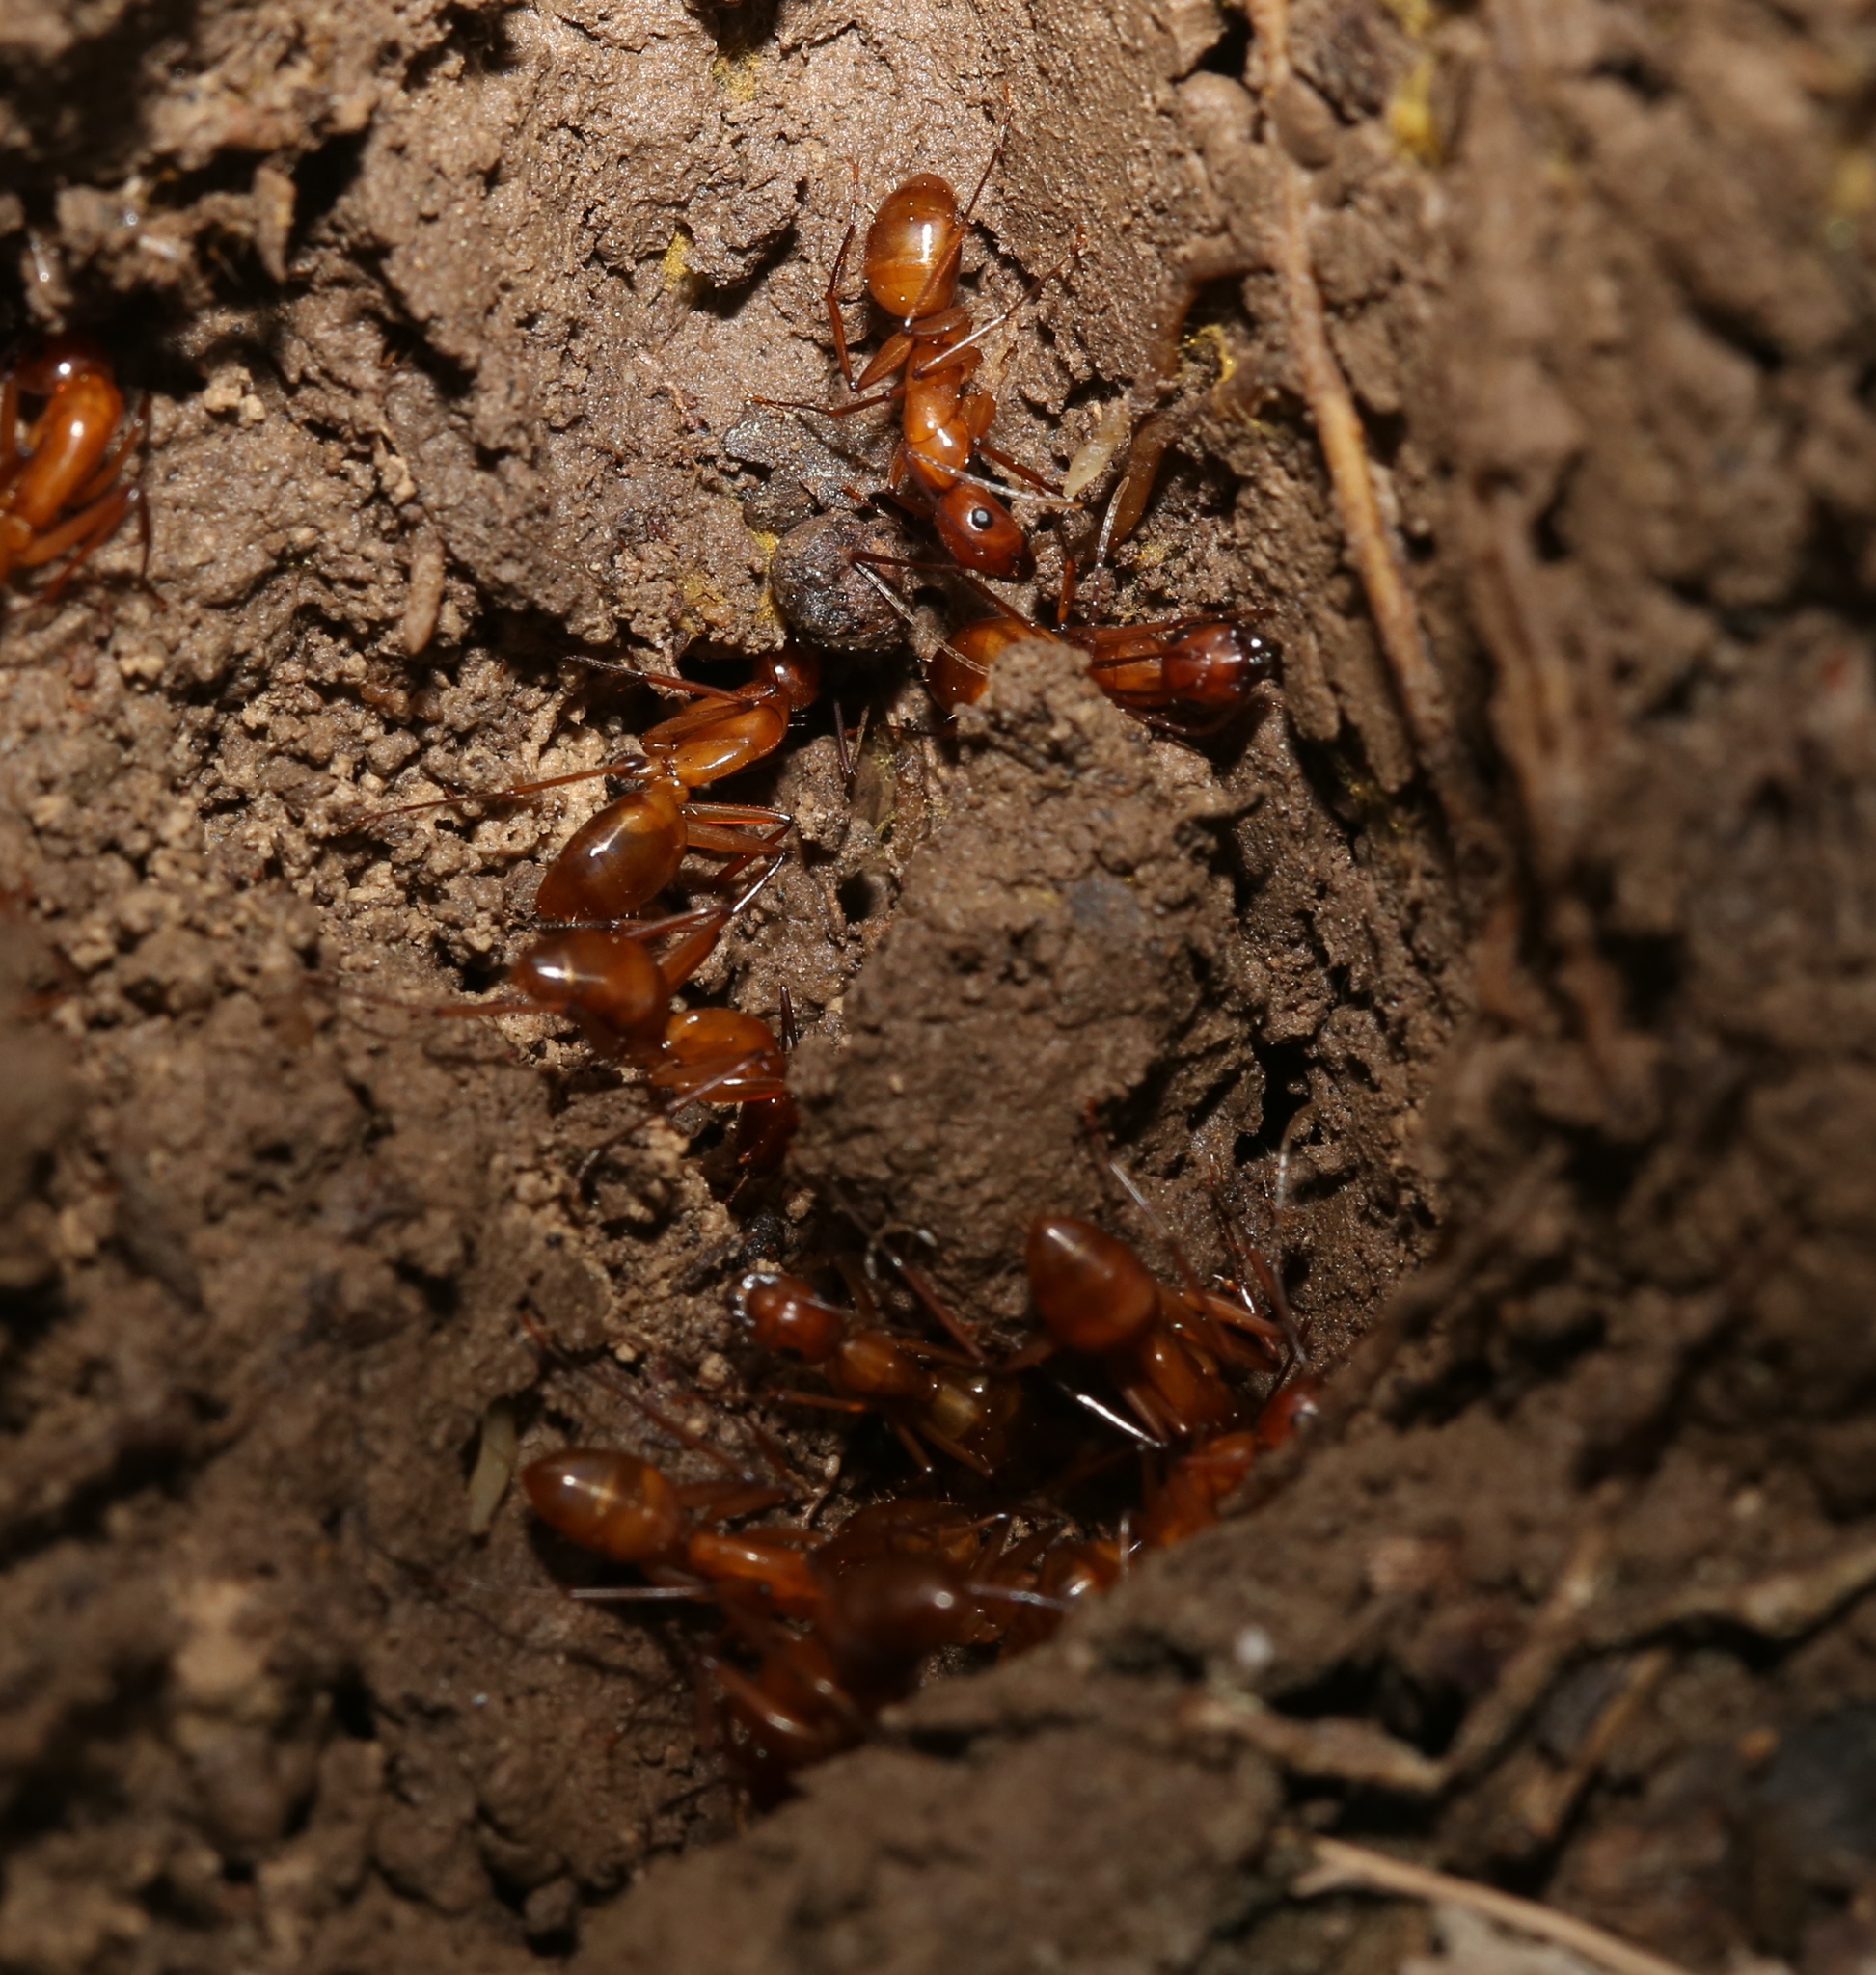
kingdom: Animalia
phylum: Arthropoda
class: Insecta
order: Hymenoptera
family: Formicidae
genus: Camponotus
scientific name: Camponotus castaneus
